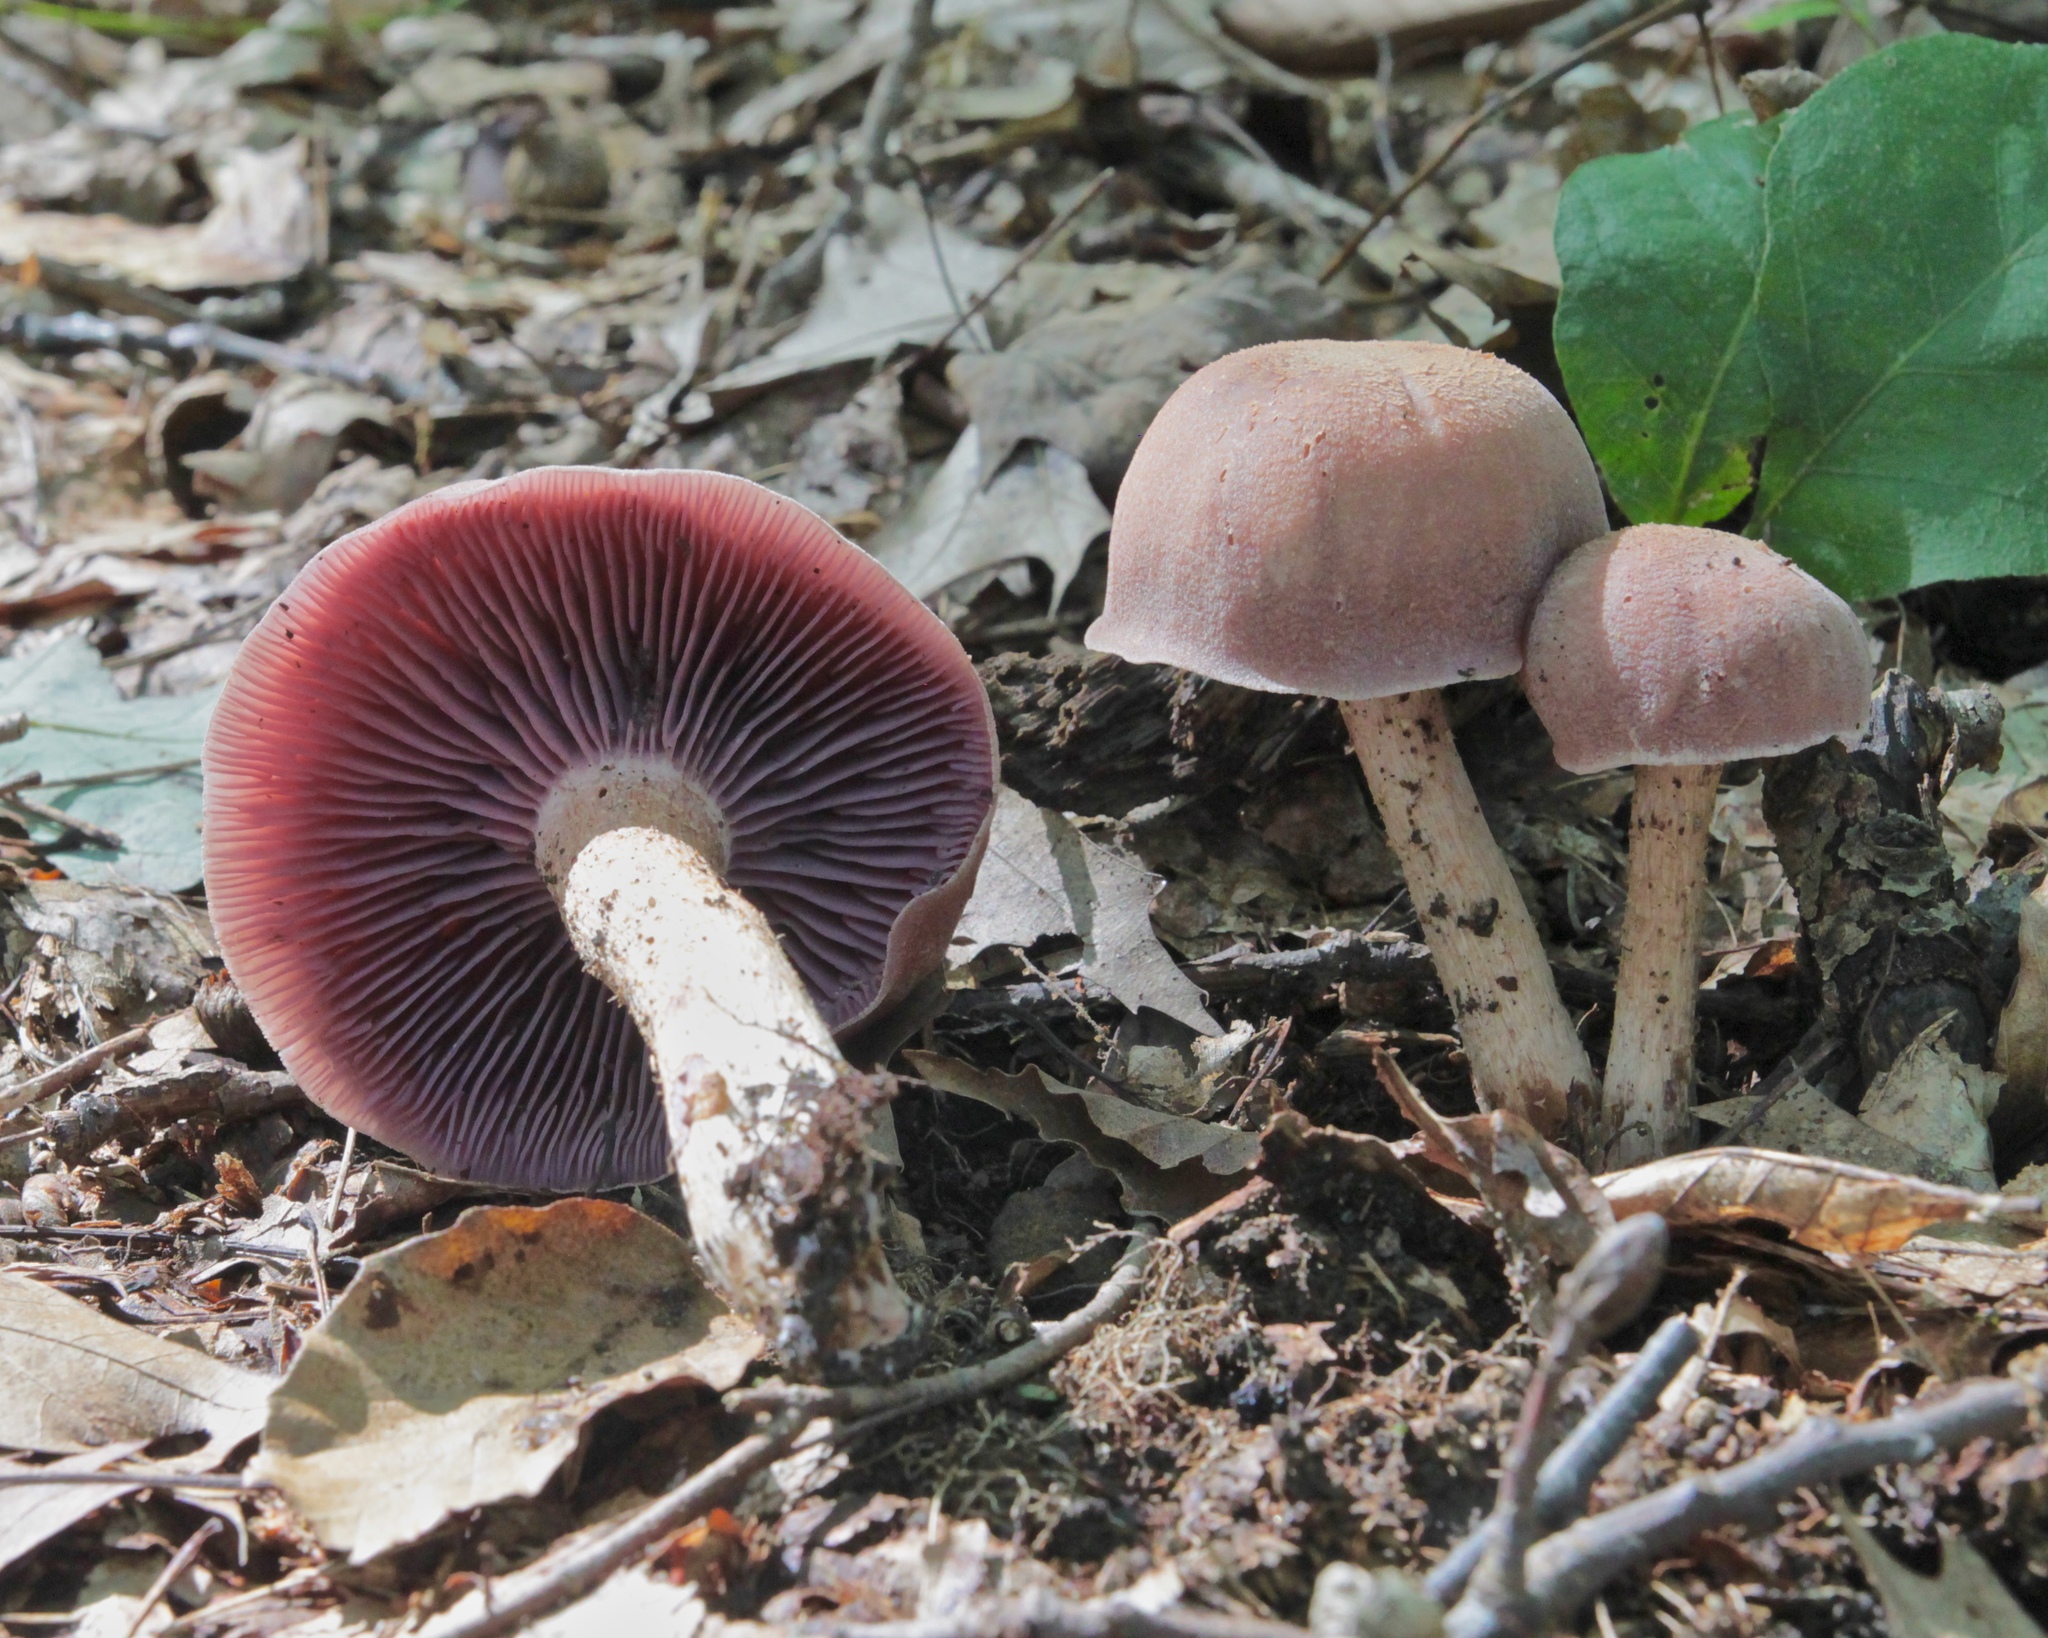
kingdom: Fungi
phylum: Basidiomycota
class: Agaricomycetes
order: Agaricales
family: Hydnangiaceae
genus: Laccaria
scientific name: Laccaria ochropurpurea
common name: Purple laccaria
